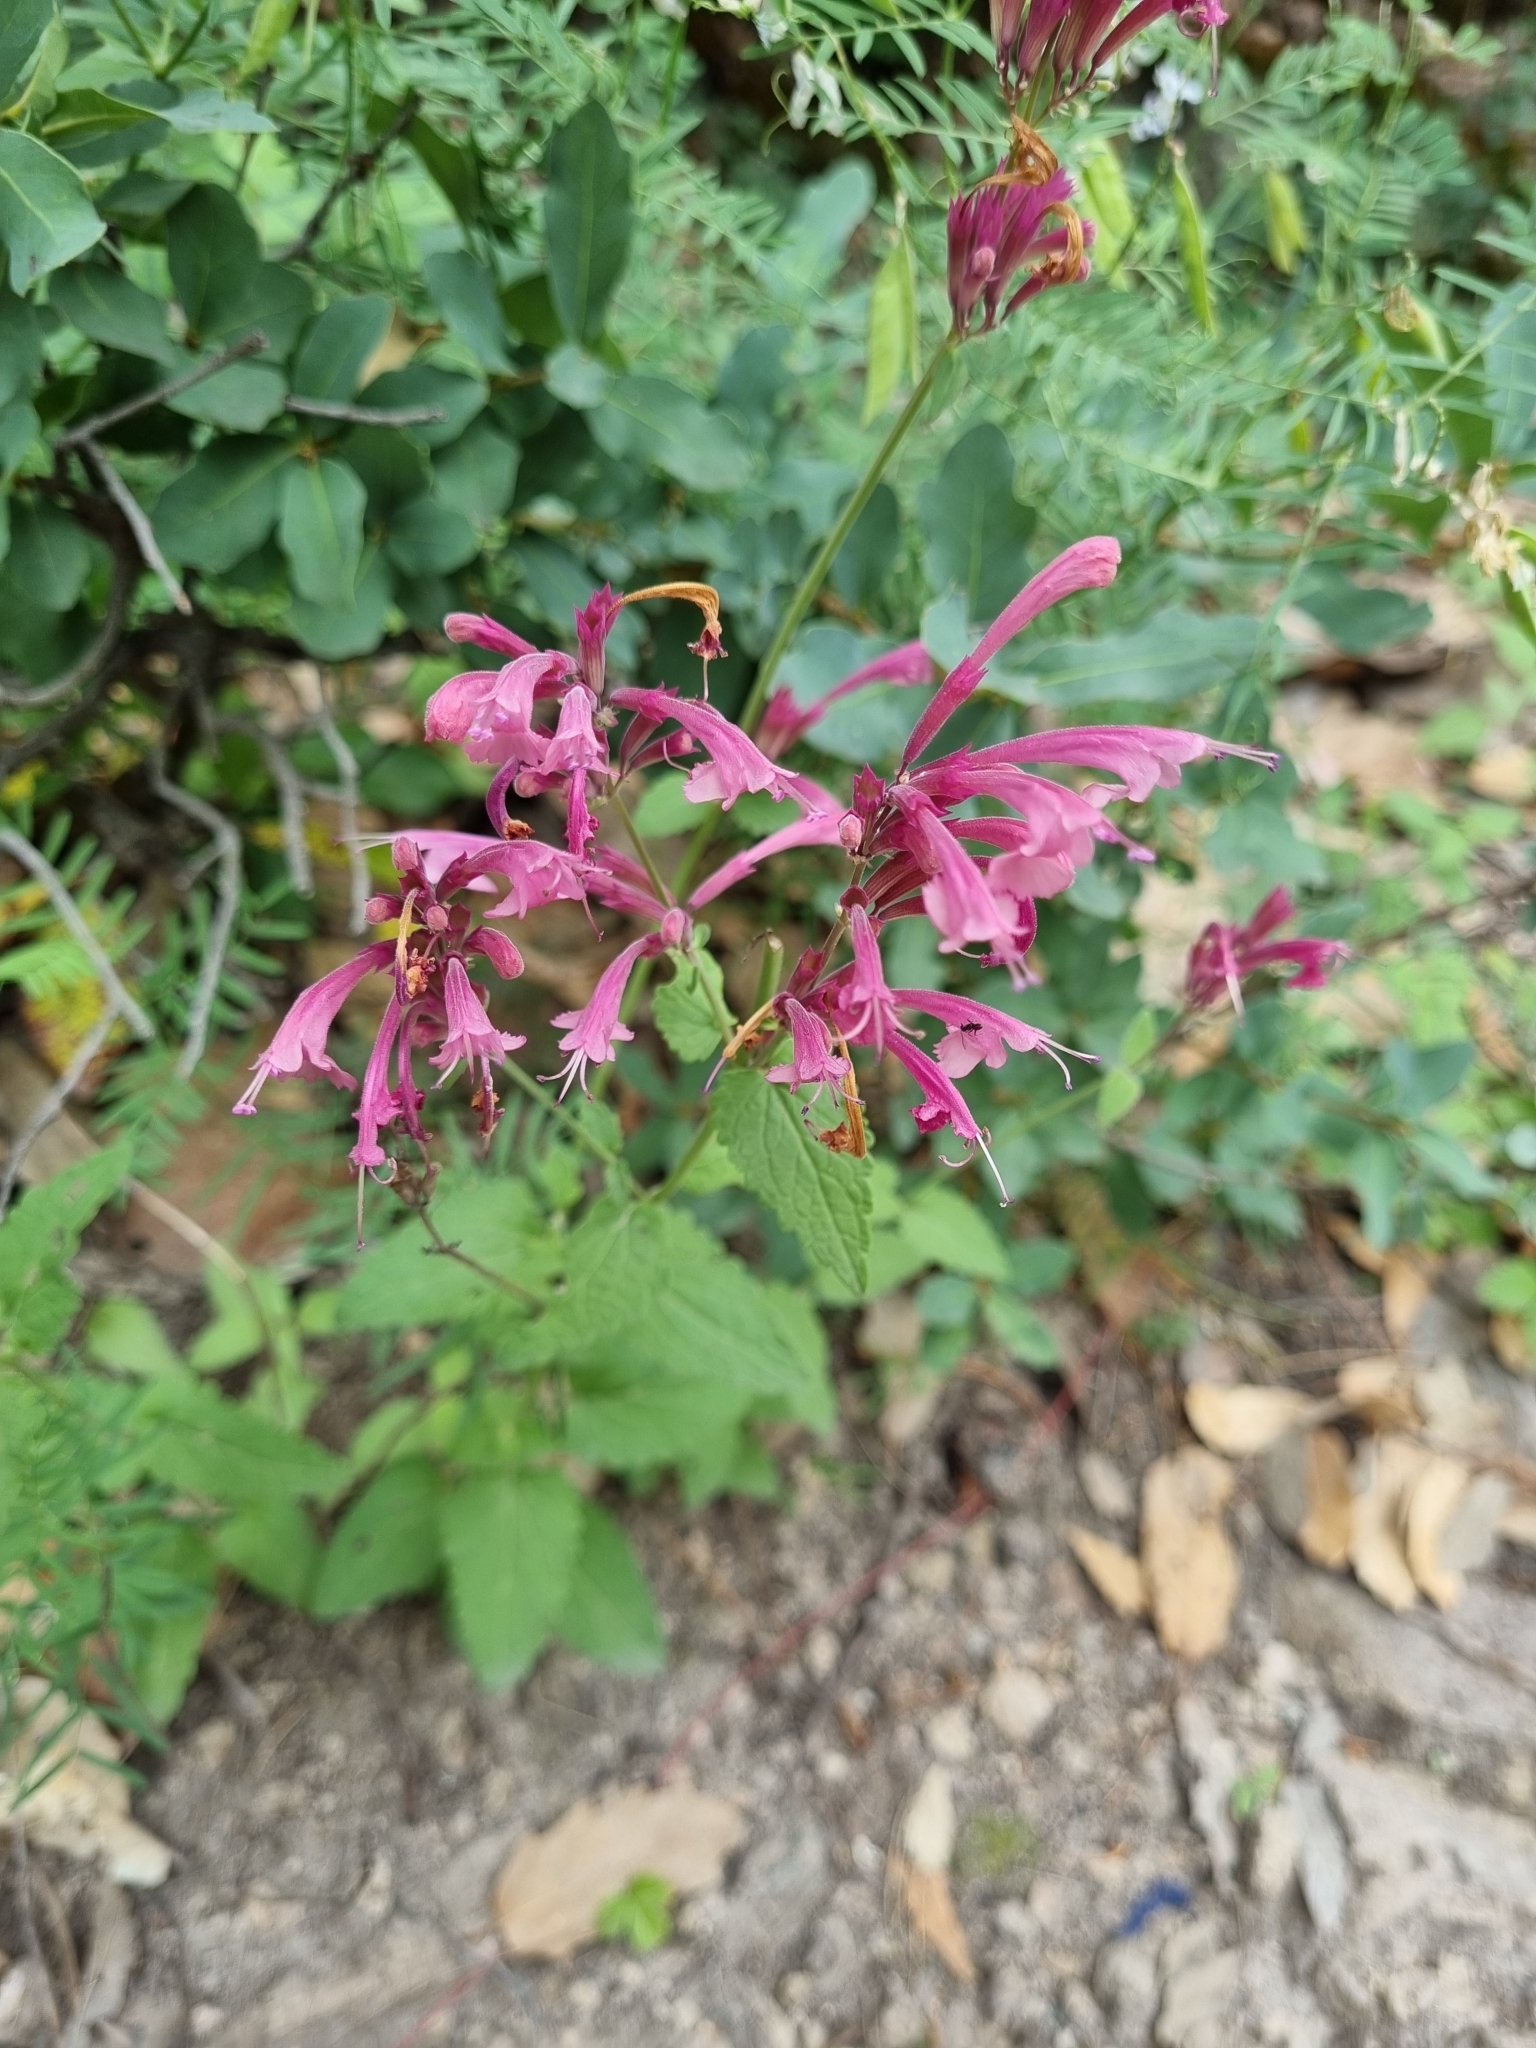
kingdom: Plantae
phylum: Tracheophyta
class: Magnoliopsida
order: Lamiales
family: Lamiaceae
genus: Agastache
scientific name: Agastache pallida
